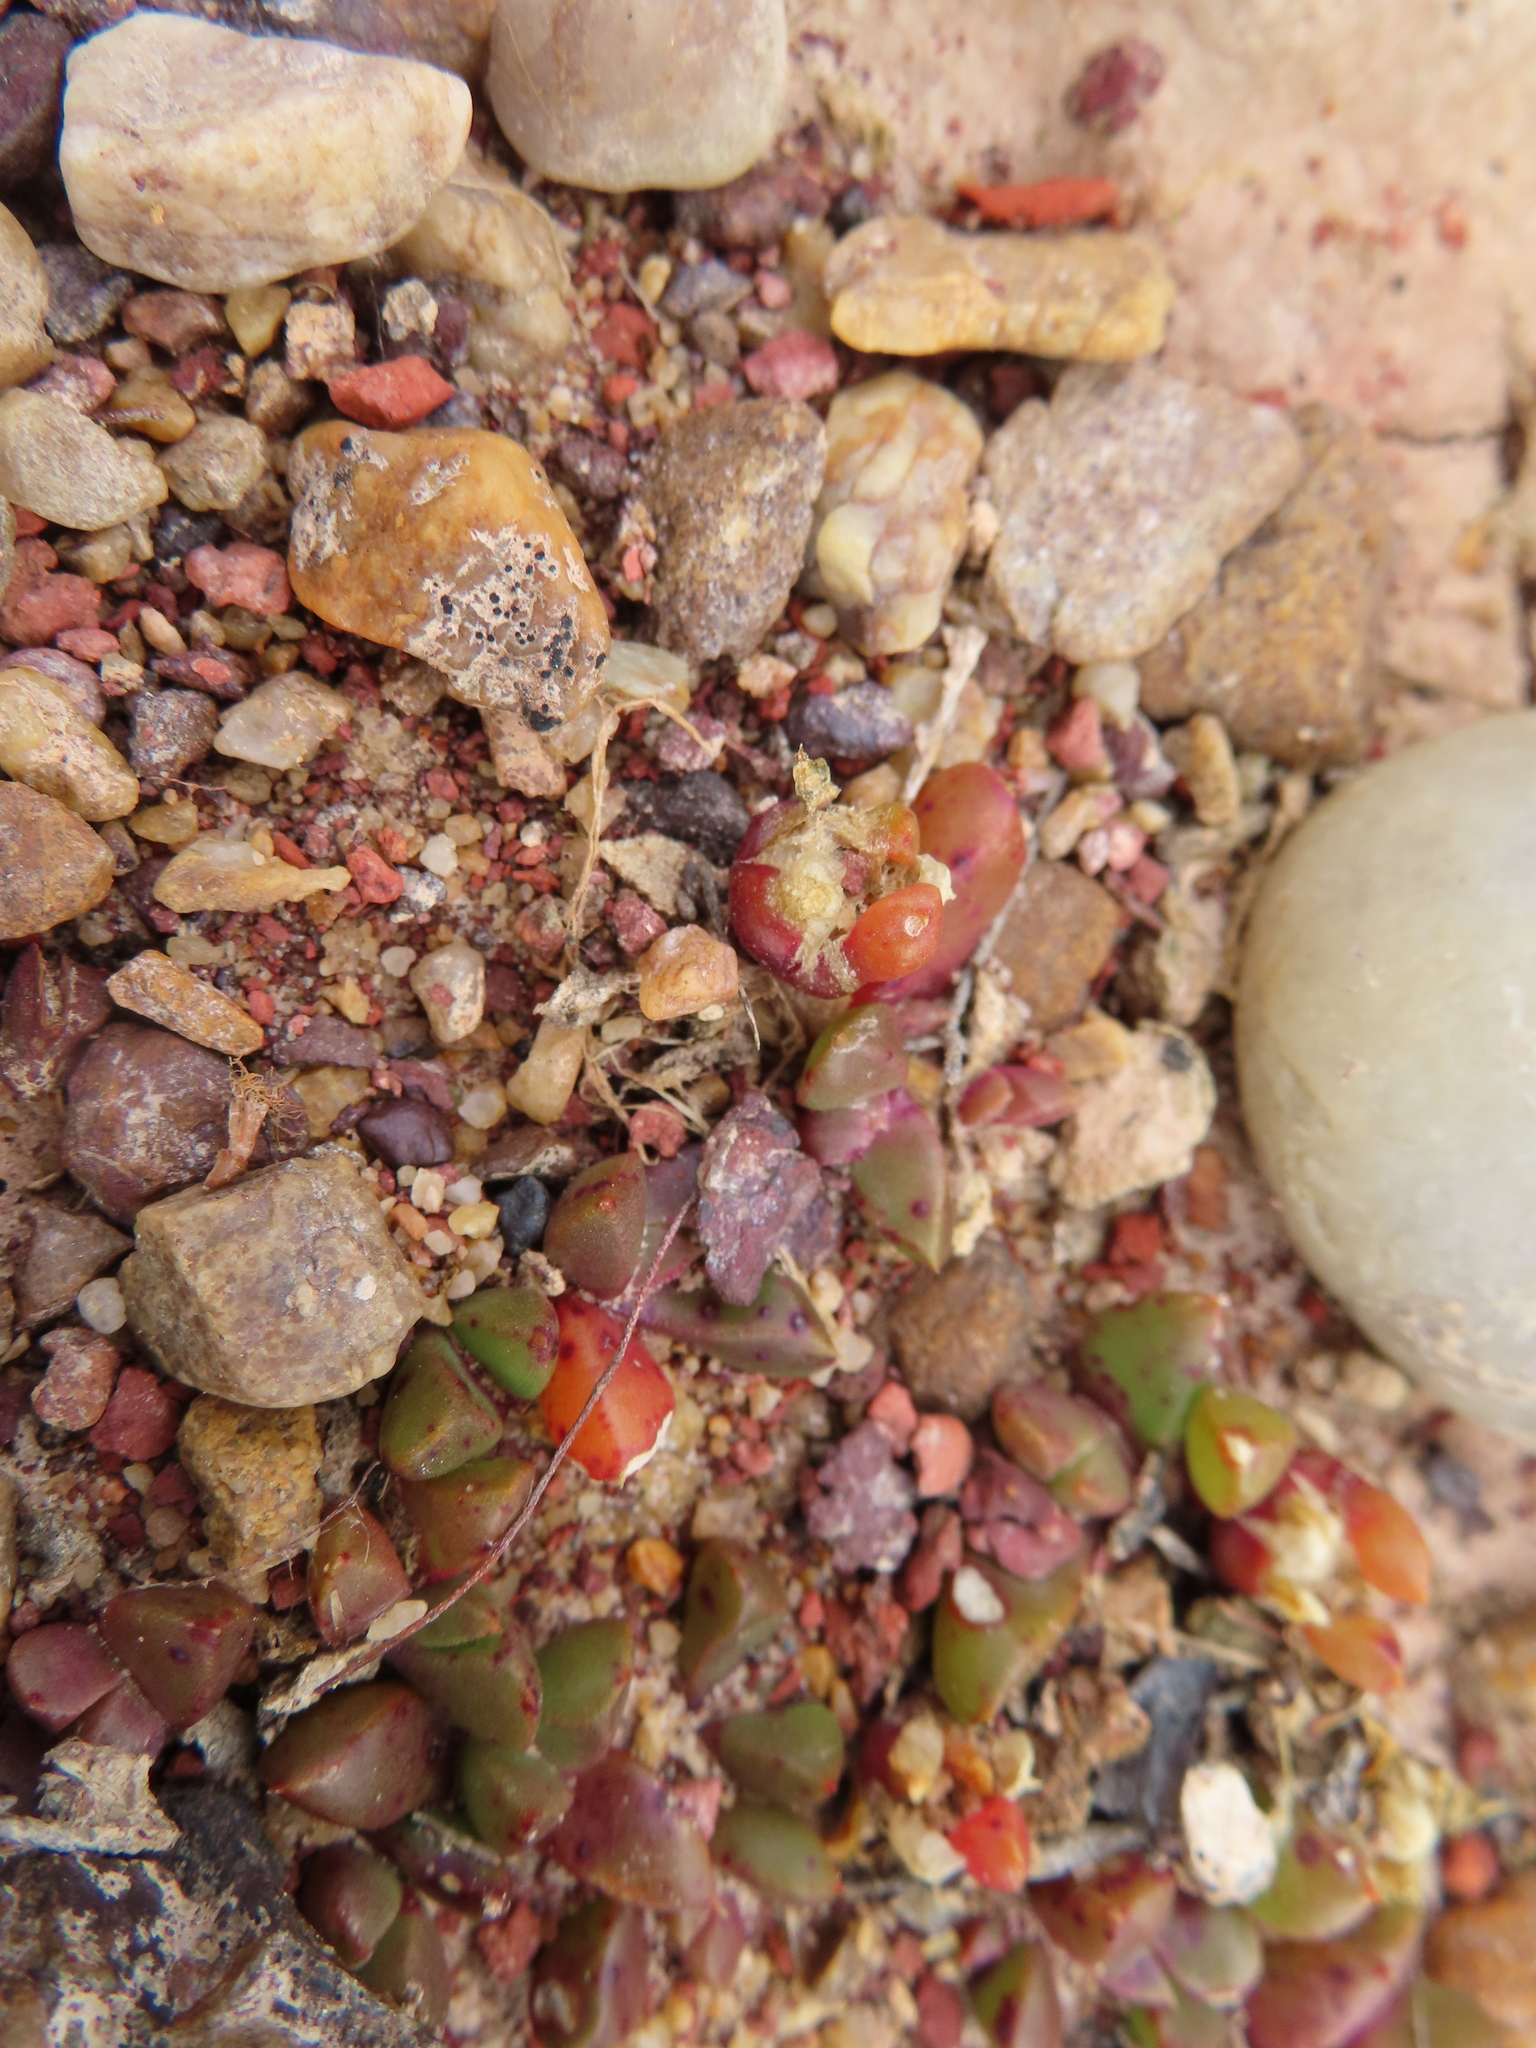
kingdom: Plantae
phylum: Tracheophyta
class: Magnoliopsida
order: Caryophyllales
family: Aizoaceae
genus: Disphyma
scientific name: Disphyma dunsdonii
